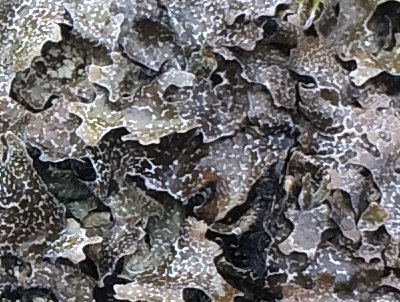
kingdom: Fungi
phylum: Ascomycota
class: Lecanoromycetes
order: Lecanorales
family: Parmeliaceae
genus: Parmelia
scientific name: Parmelia omphalodes
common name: Smoky crottle
